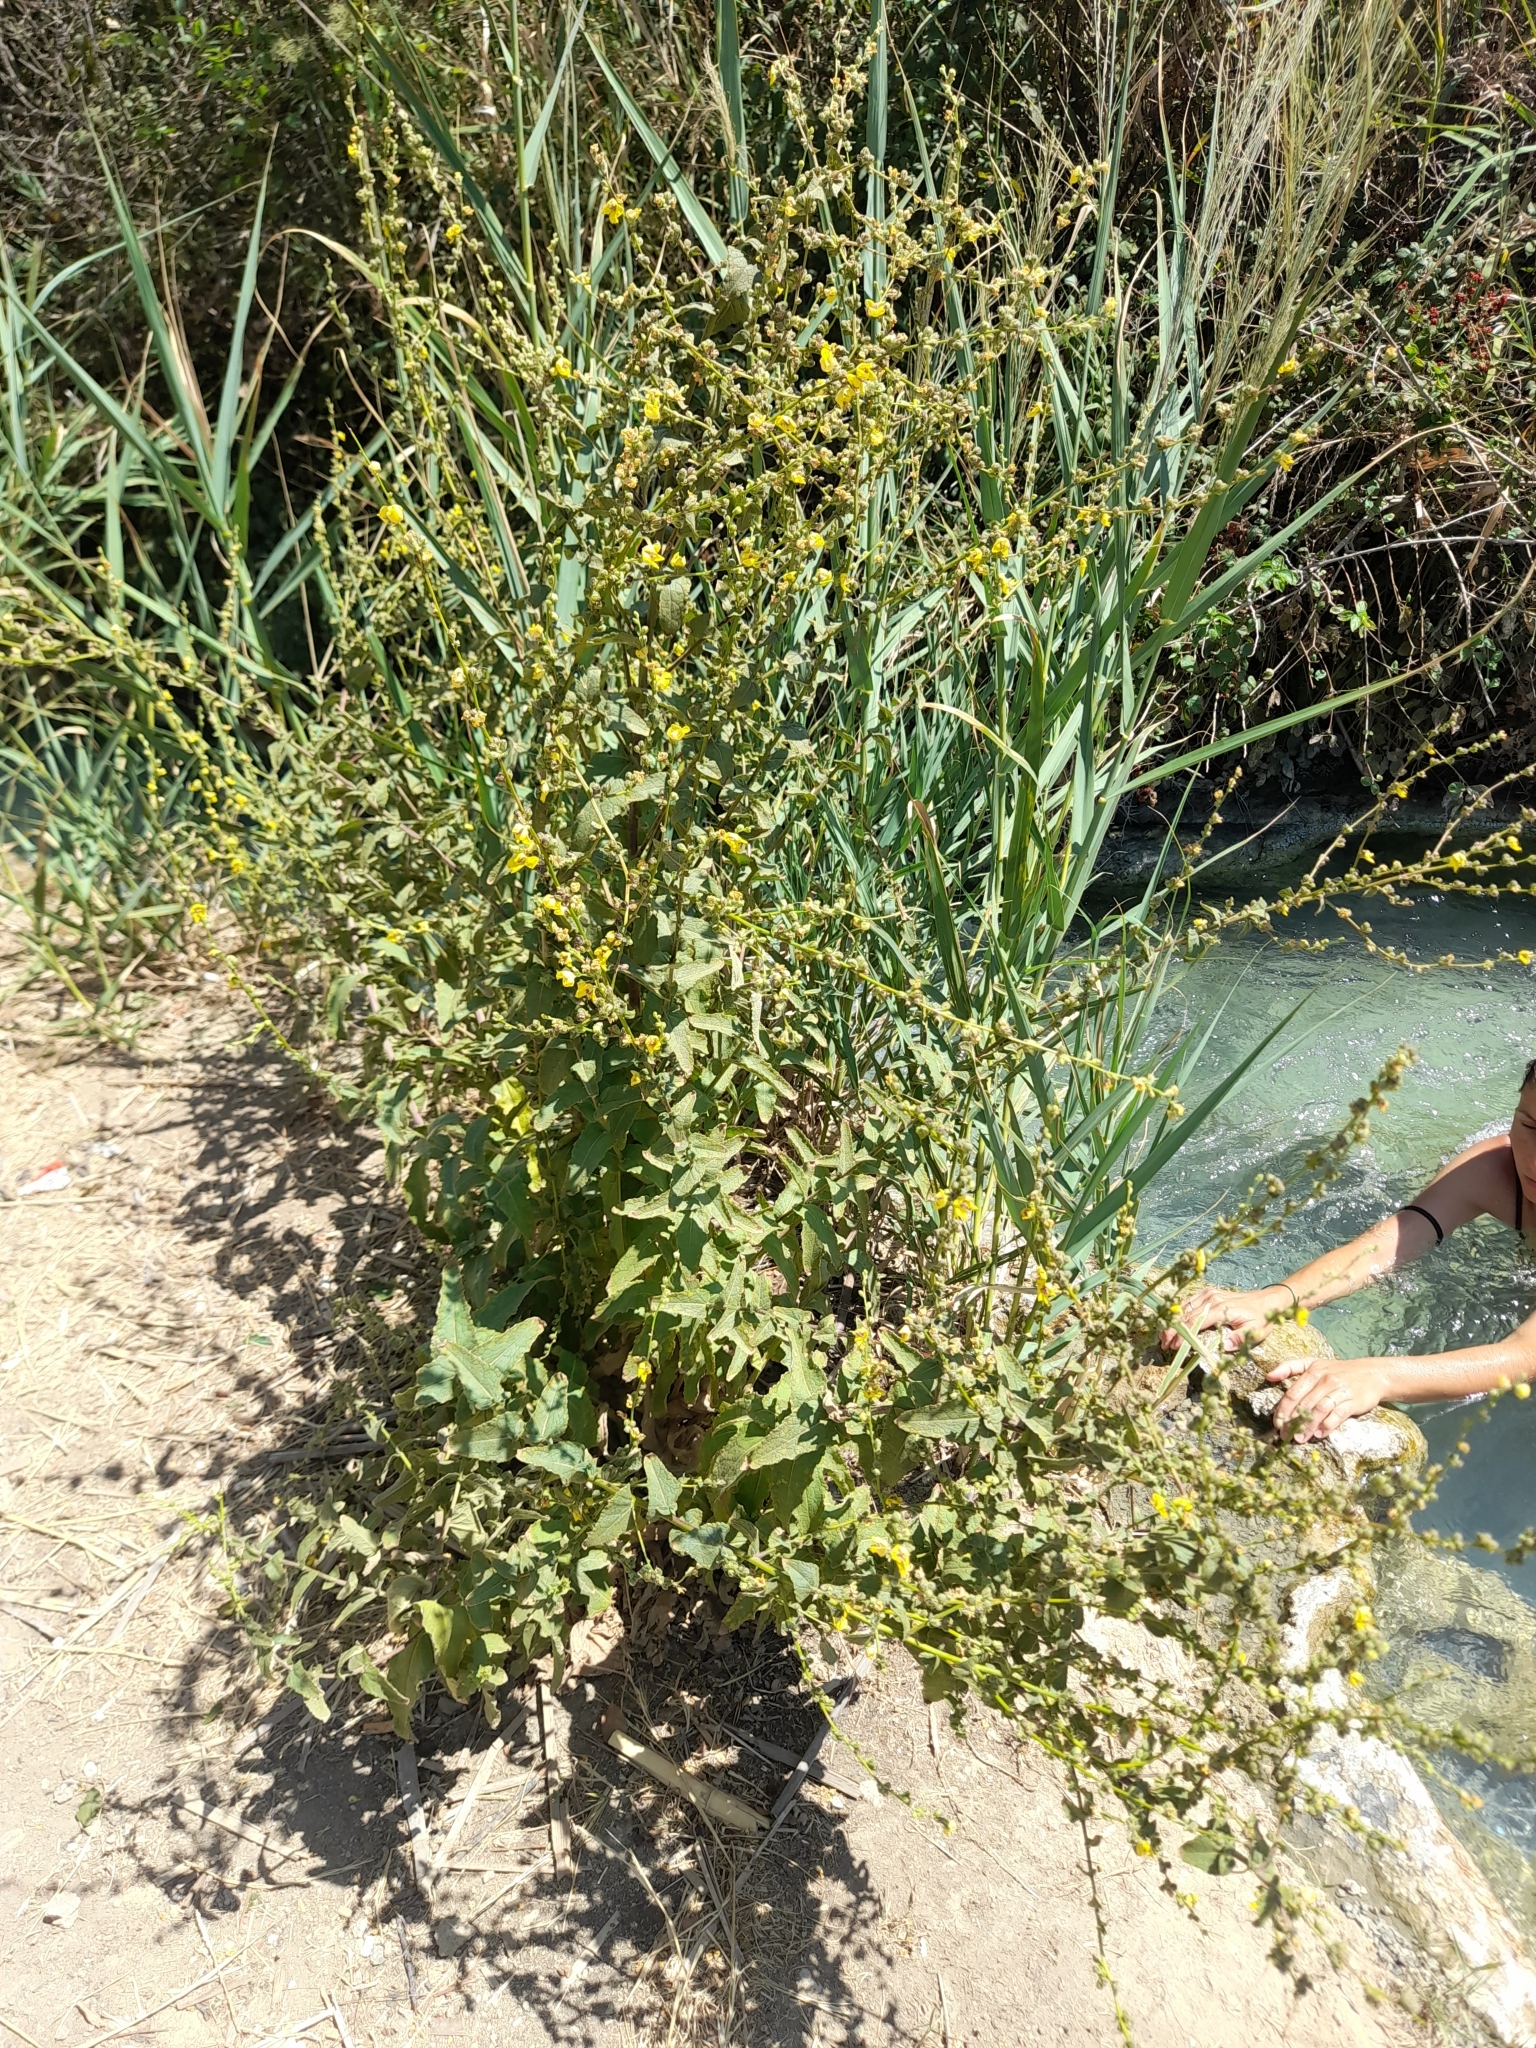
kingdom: Plantae
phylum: Tracheophyta
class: Magnoliopsida
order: Lamiales
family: Scrophulariaceae
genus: Verbascum
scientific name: Verbascum sinuatum
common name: Wavyleaf mullein
